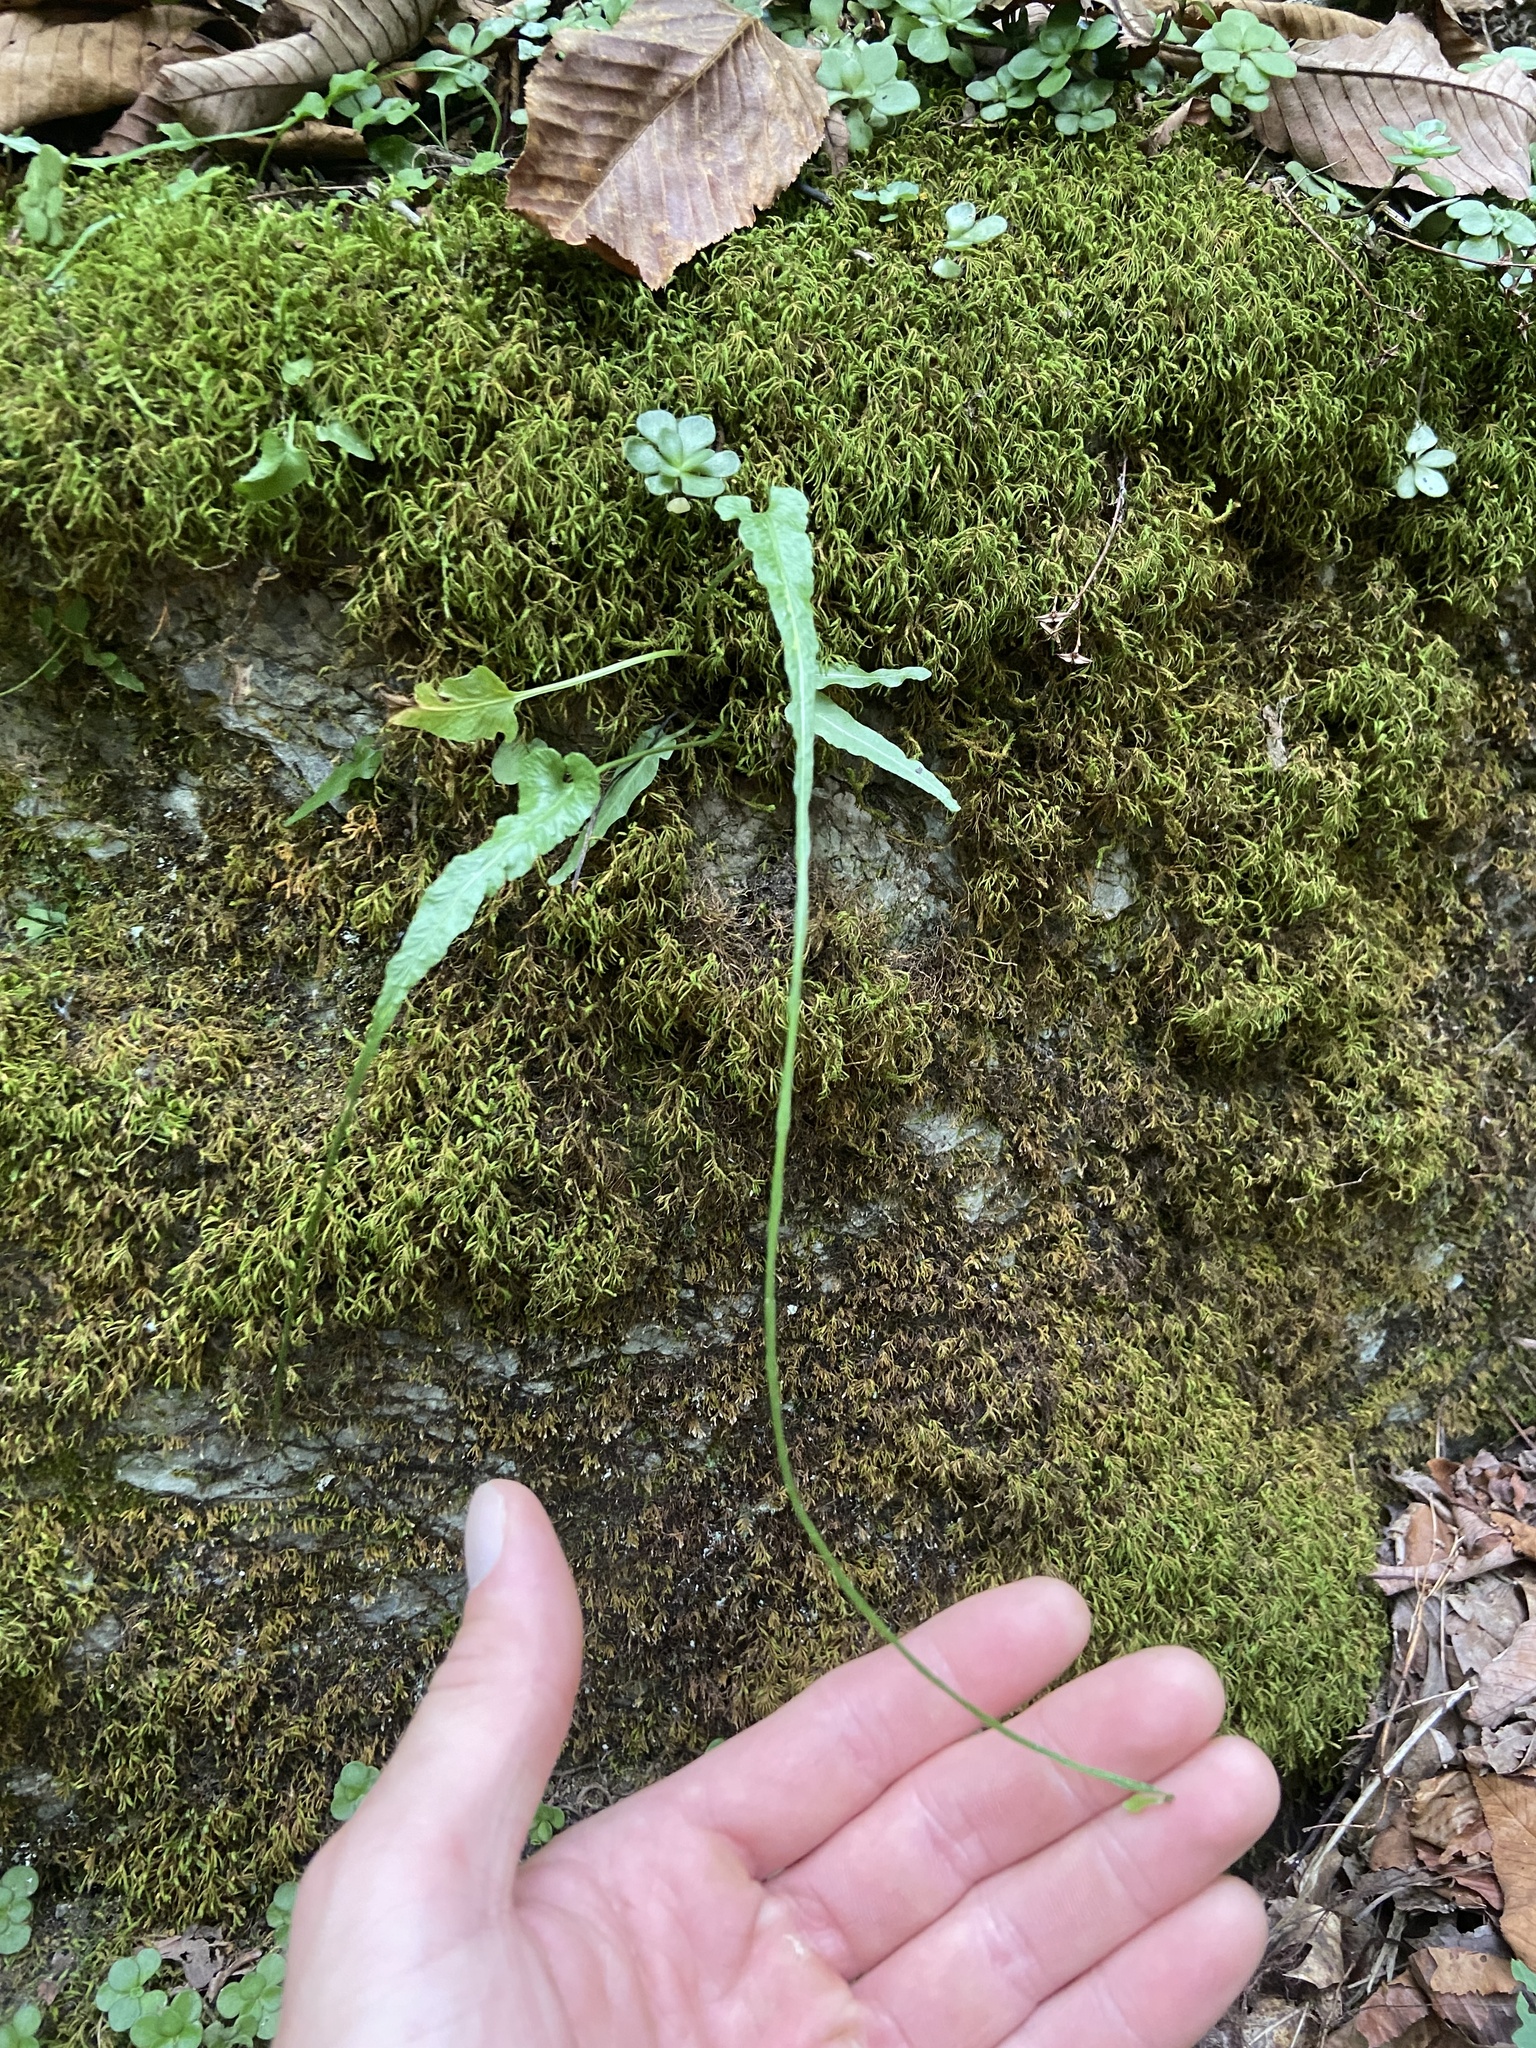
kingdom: Plantae
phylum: Tracheophyta
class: Polypodiopsida
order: Polypodiales
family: Aspleniaceae
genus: Asplenium
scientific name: Asplenium rhizophyllum
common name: Walking fern
